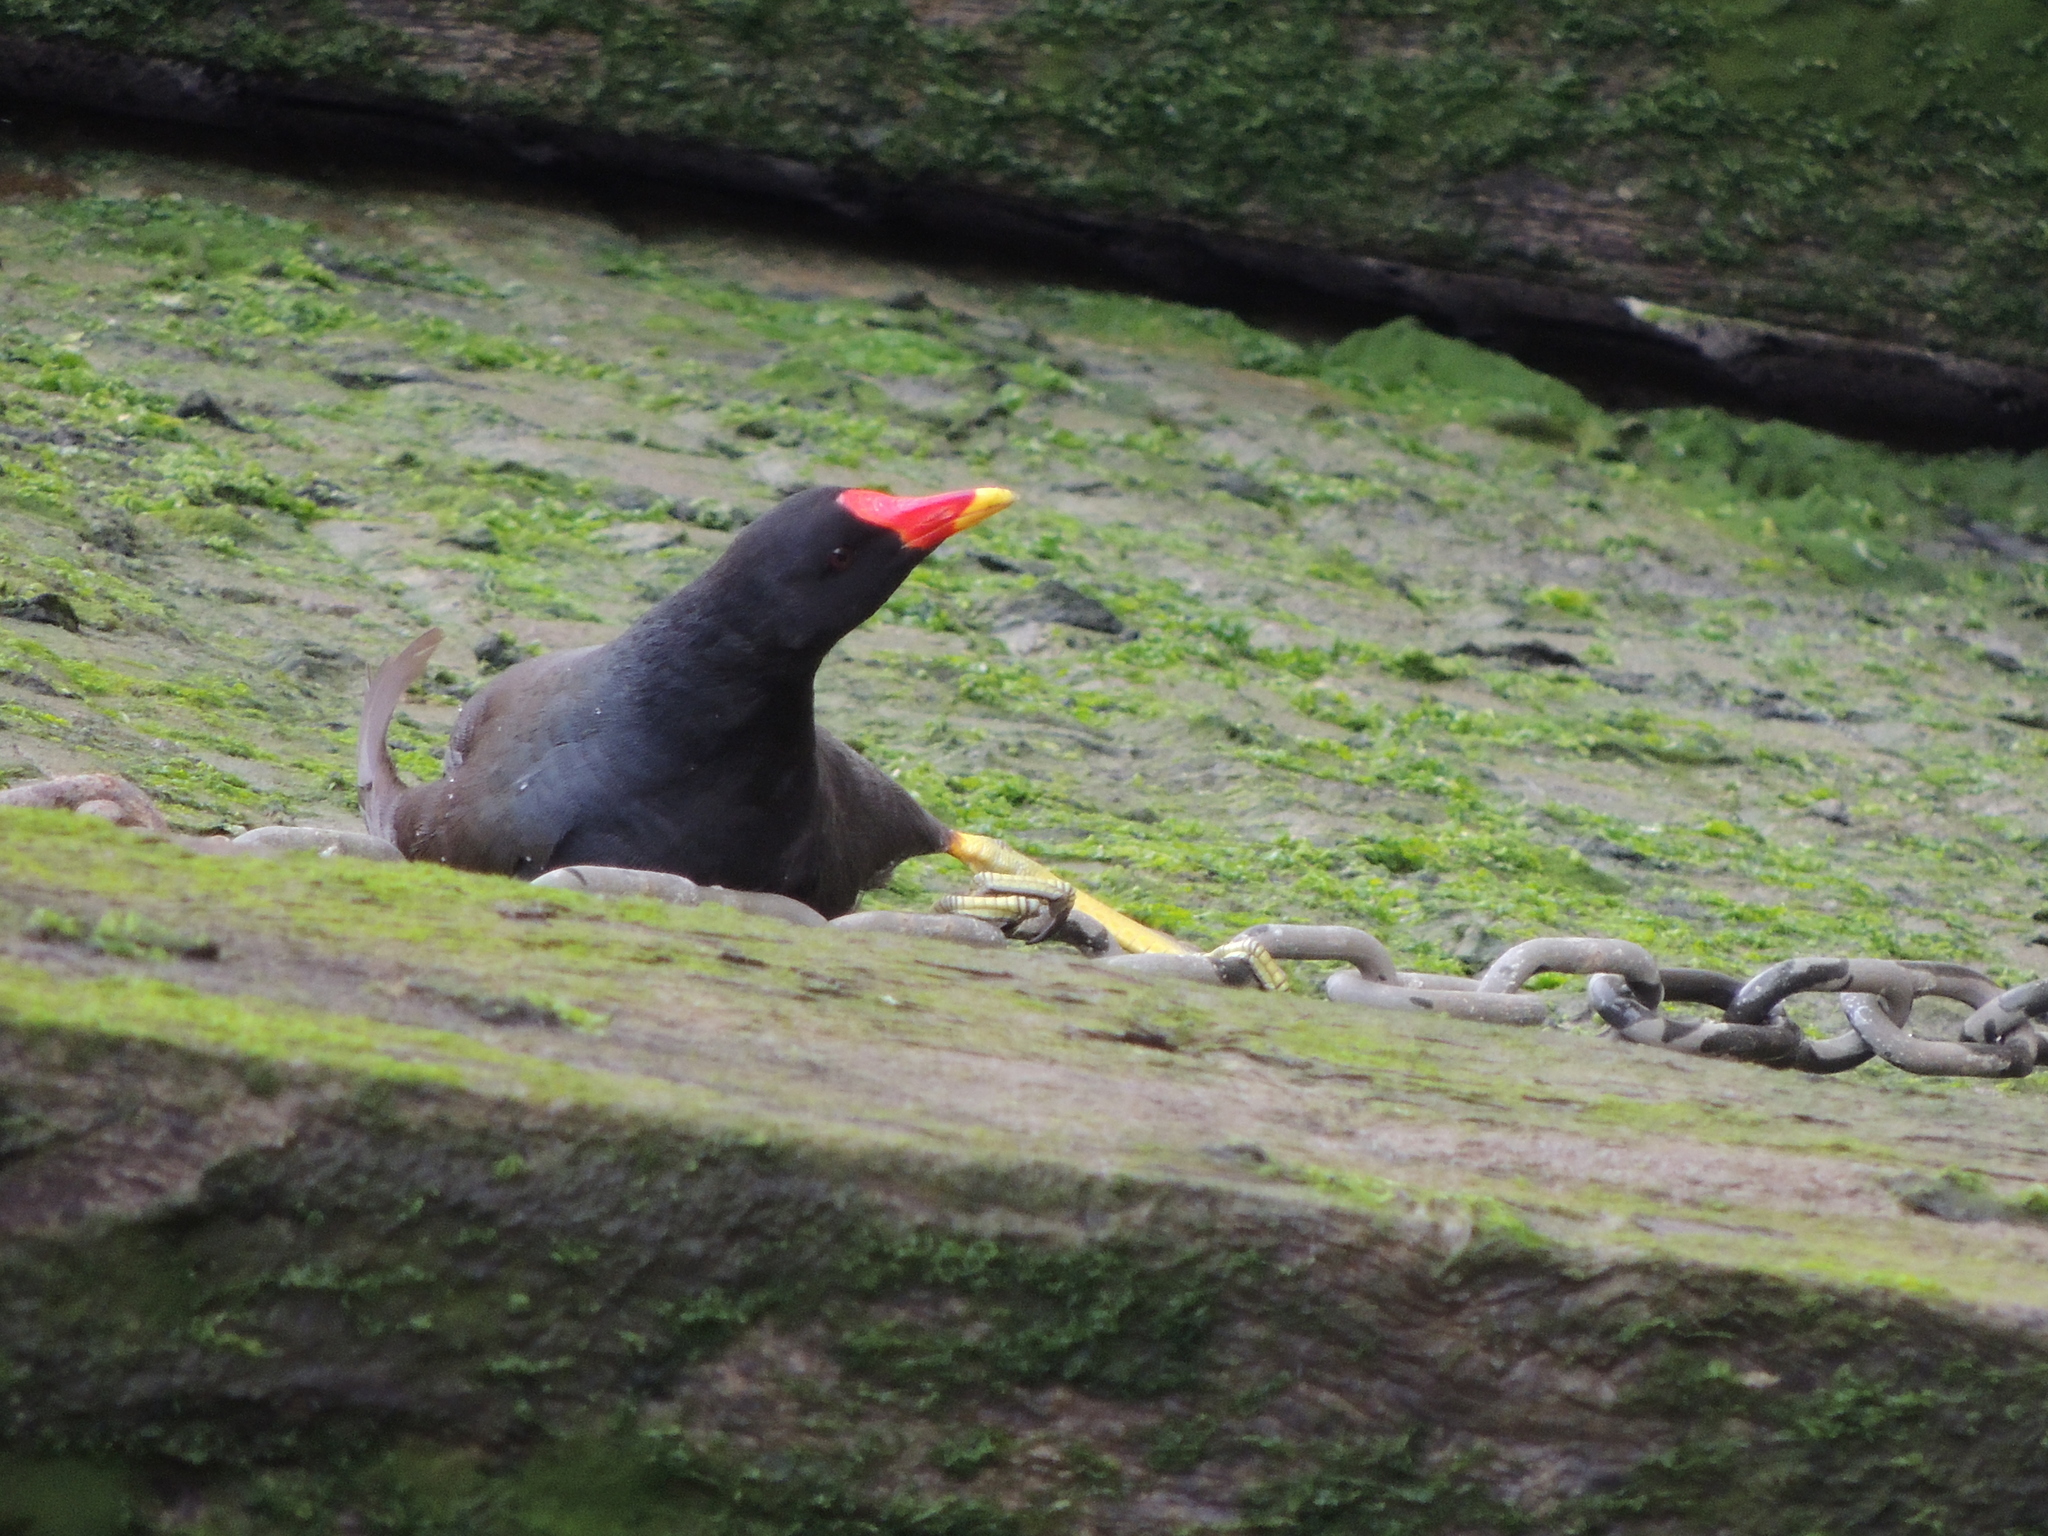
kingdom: Animalia
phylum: Chordata
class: Aves
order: Gruiformes
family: Rallidae
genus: Gallinula
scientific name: Gallinula chloropus
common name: Common moorhen
